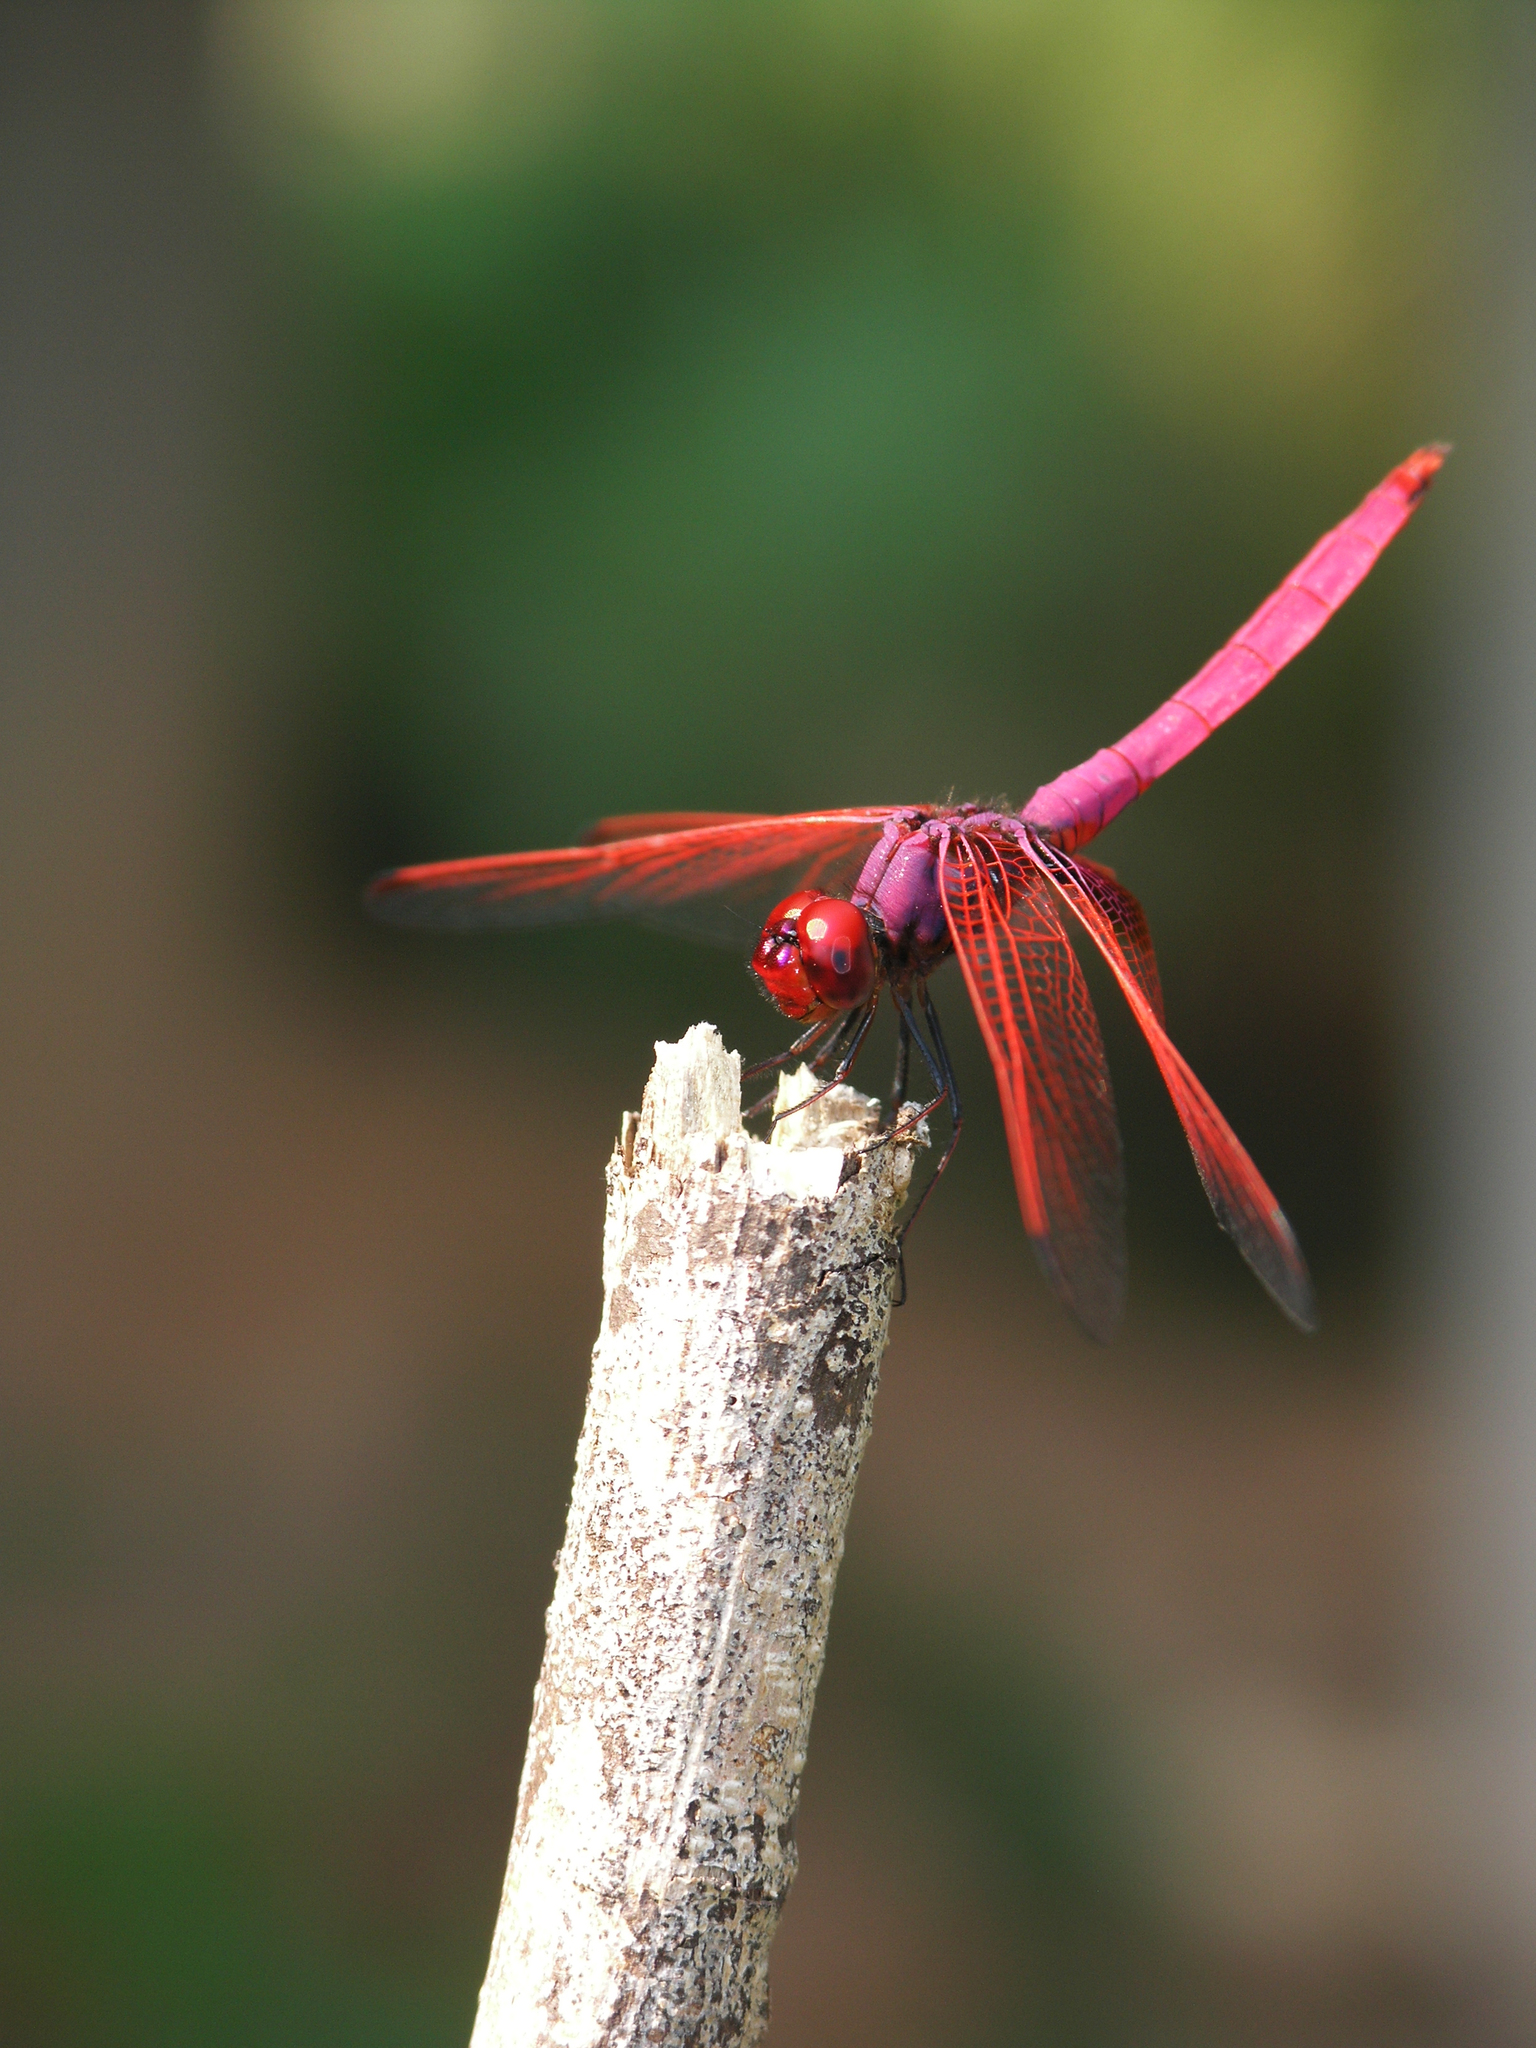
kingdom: Animalia
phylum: Arthropoda
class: Insecta
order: Odonata
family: Libellulidae
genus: Trithemis
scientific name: Trithemis aurora
